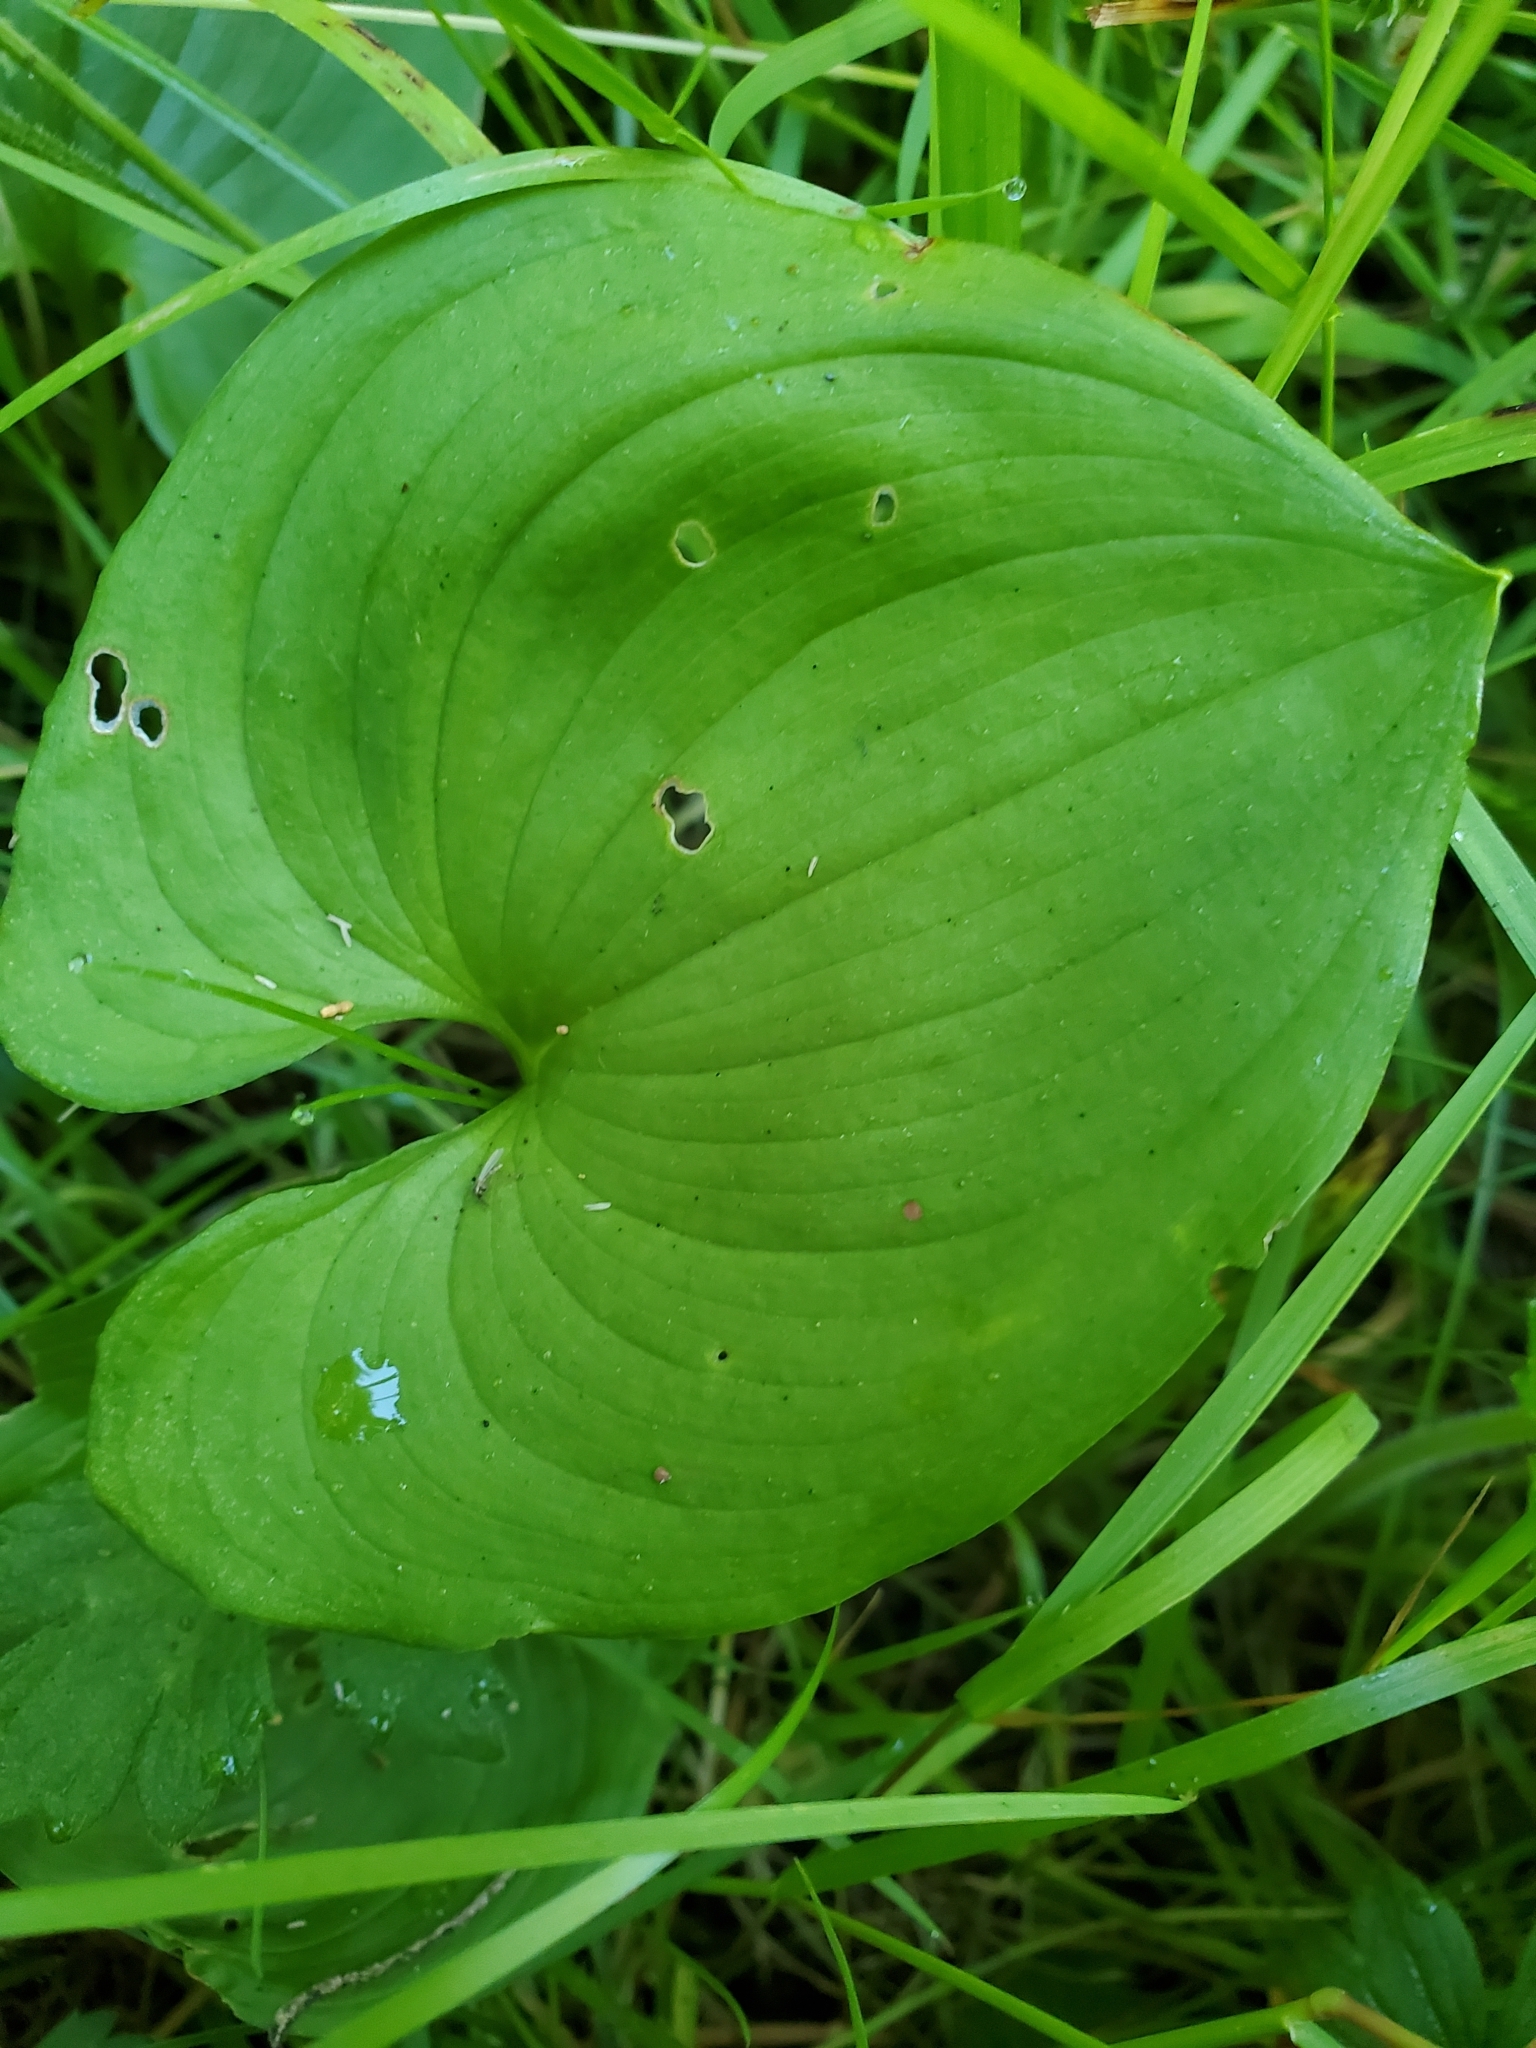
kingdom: Plantae
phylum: Tracheophyta
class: Liliopsida
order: Asparagales
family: Asparagaceae
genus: Maianthemum
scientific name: Maianthemum dilatatum
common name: False lily-of-the-valley
